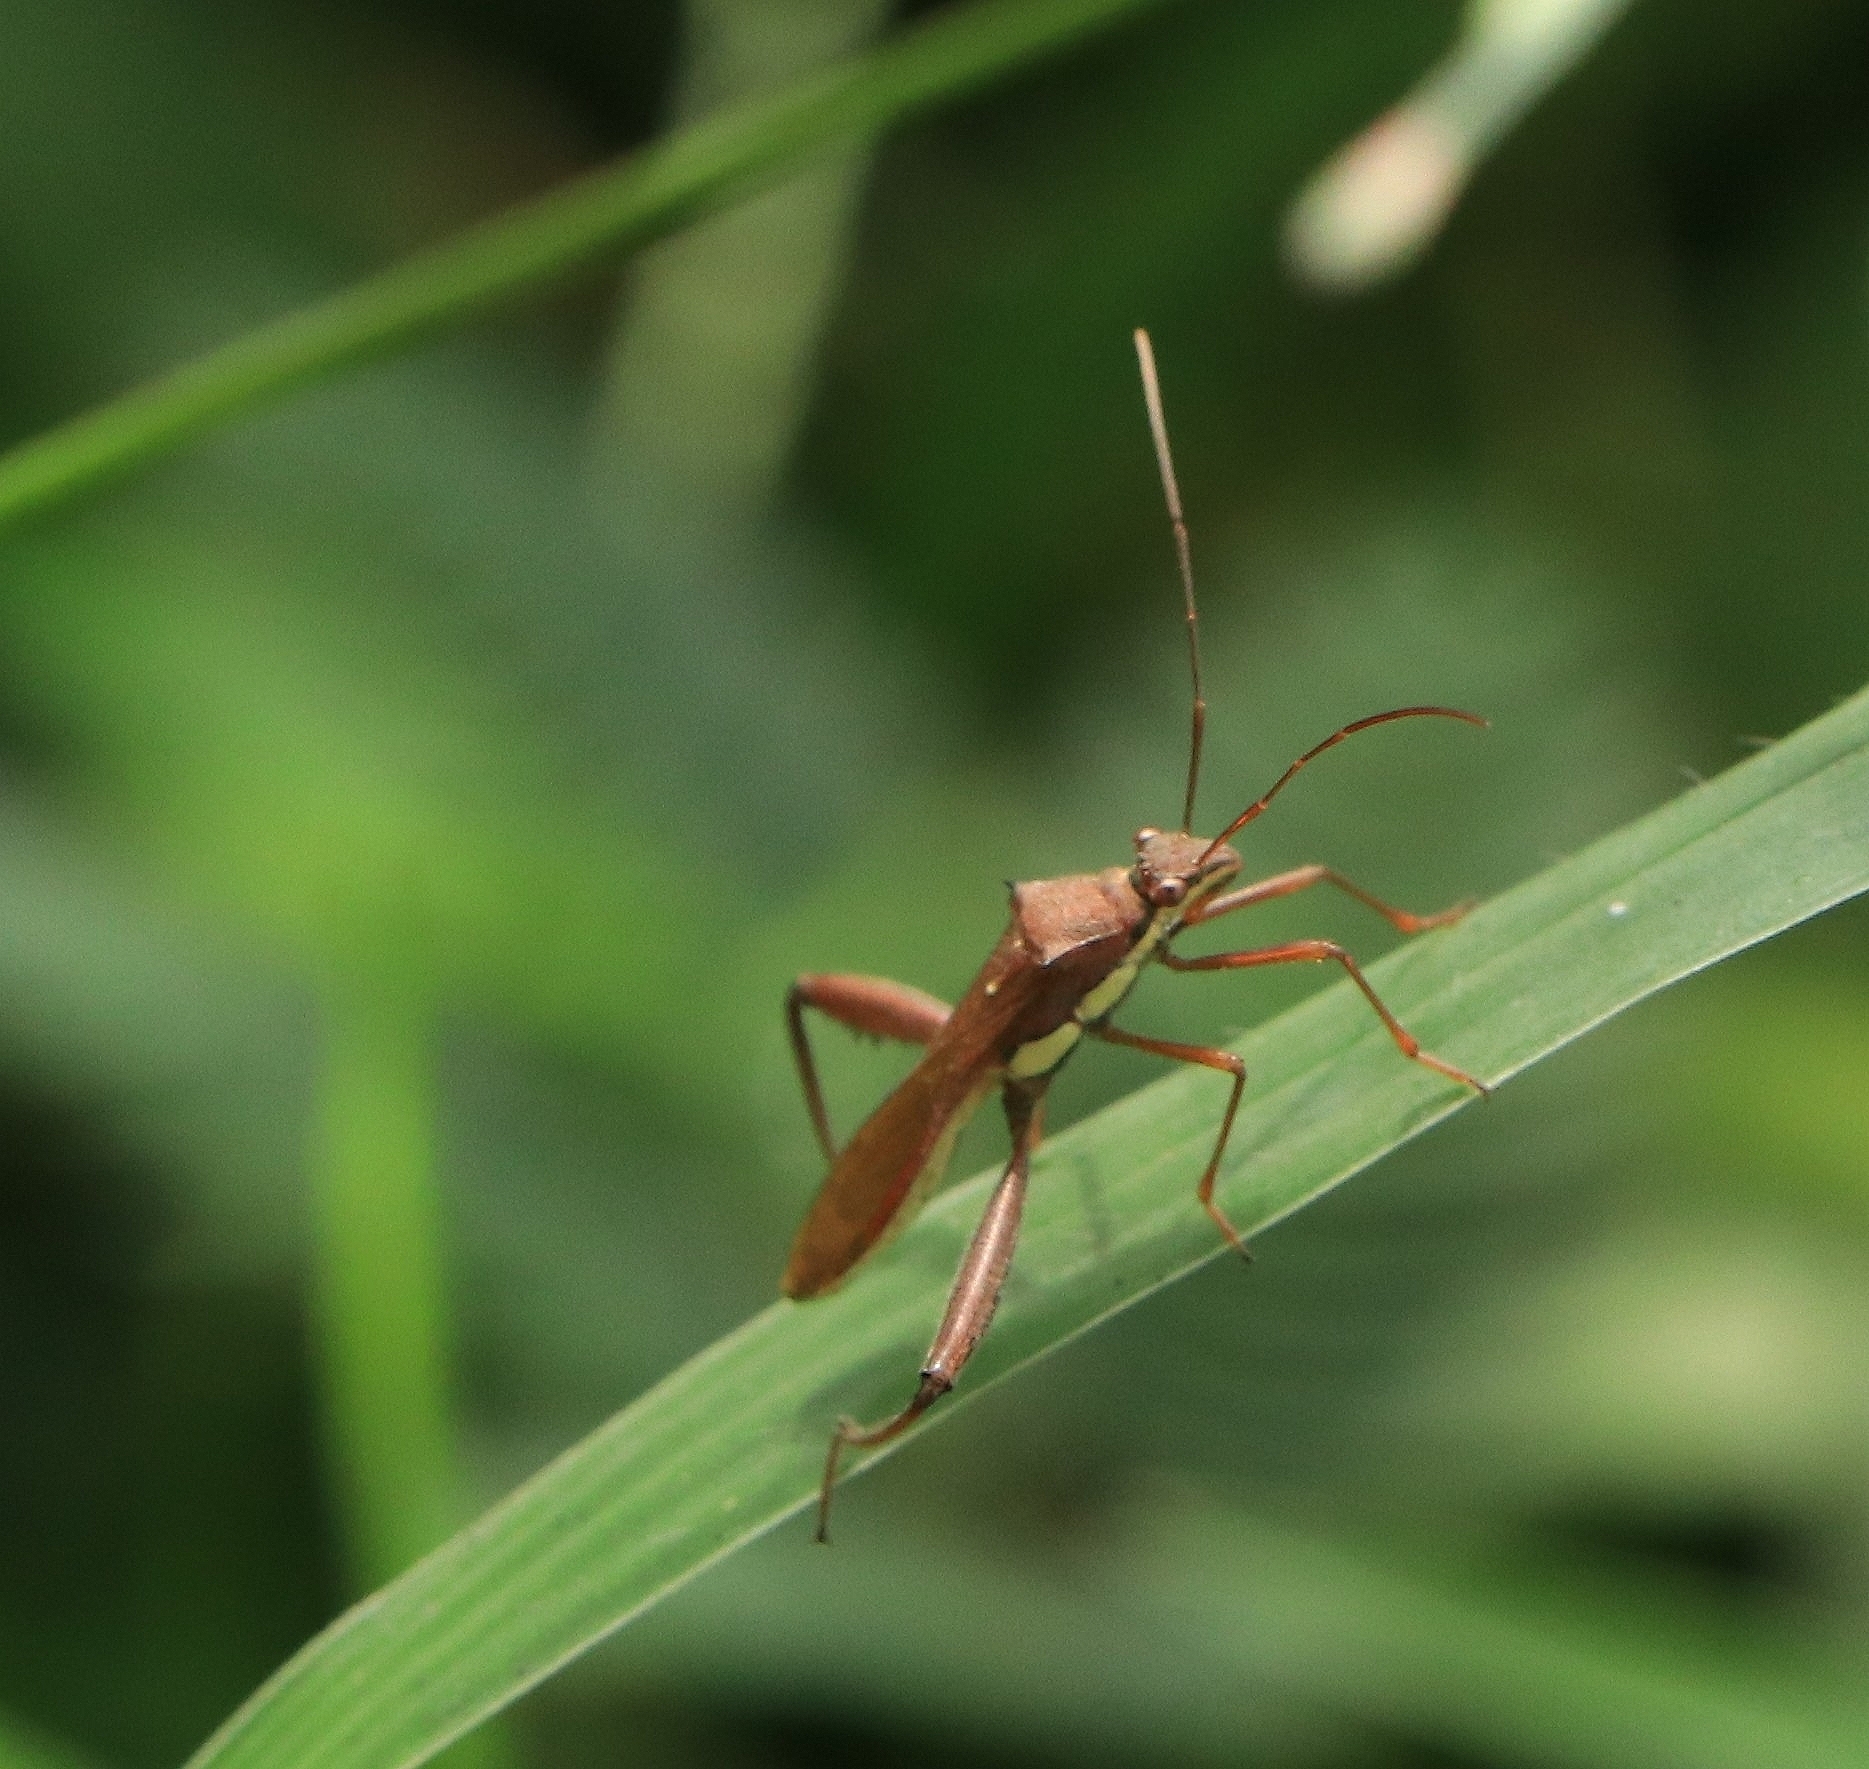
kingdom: Animalia
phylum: Arthropoda
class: Insecta
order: Hemiptera
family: Alydidae
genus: Riptortus
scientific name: Riptortus linearis
